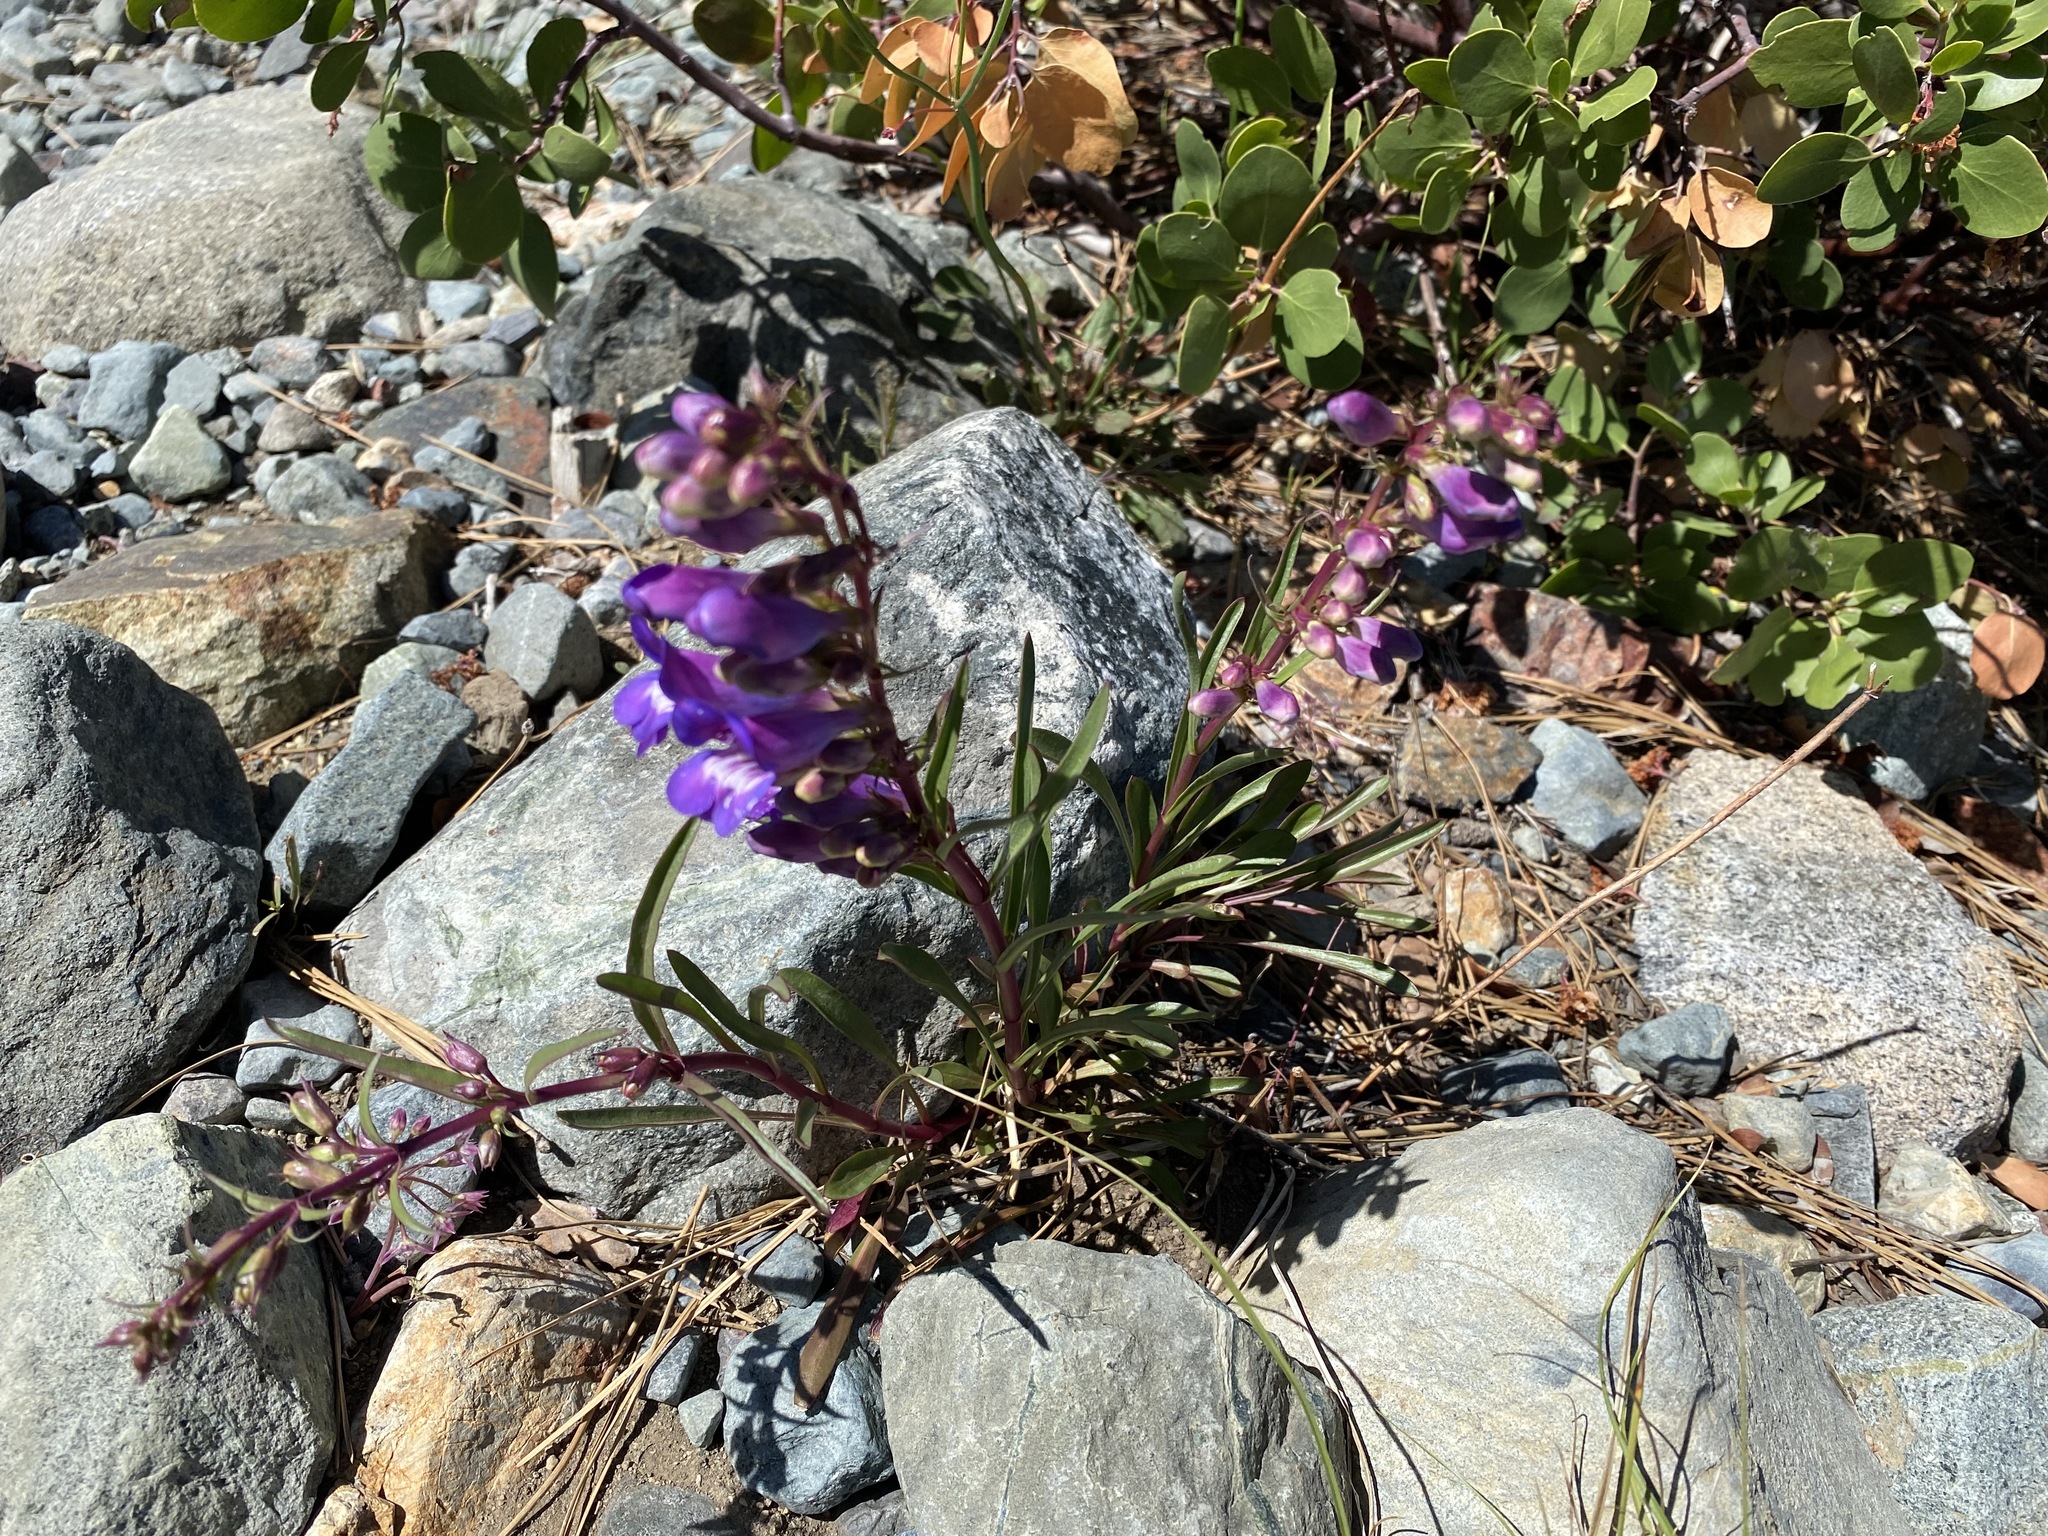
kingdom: Plantae
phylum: Tracheophyta
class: Magnoliopsida
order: Lamiales
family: Plantaginaceae
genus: Penstemon
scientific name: Penstemon speciosus
